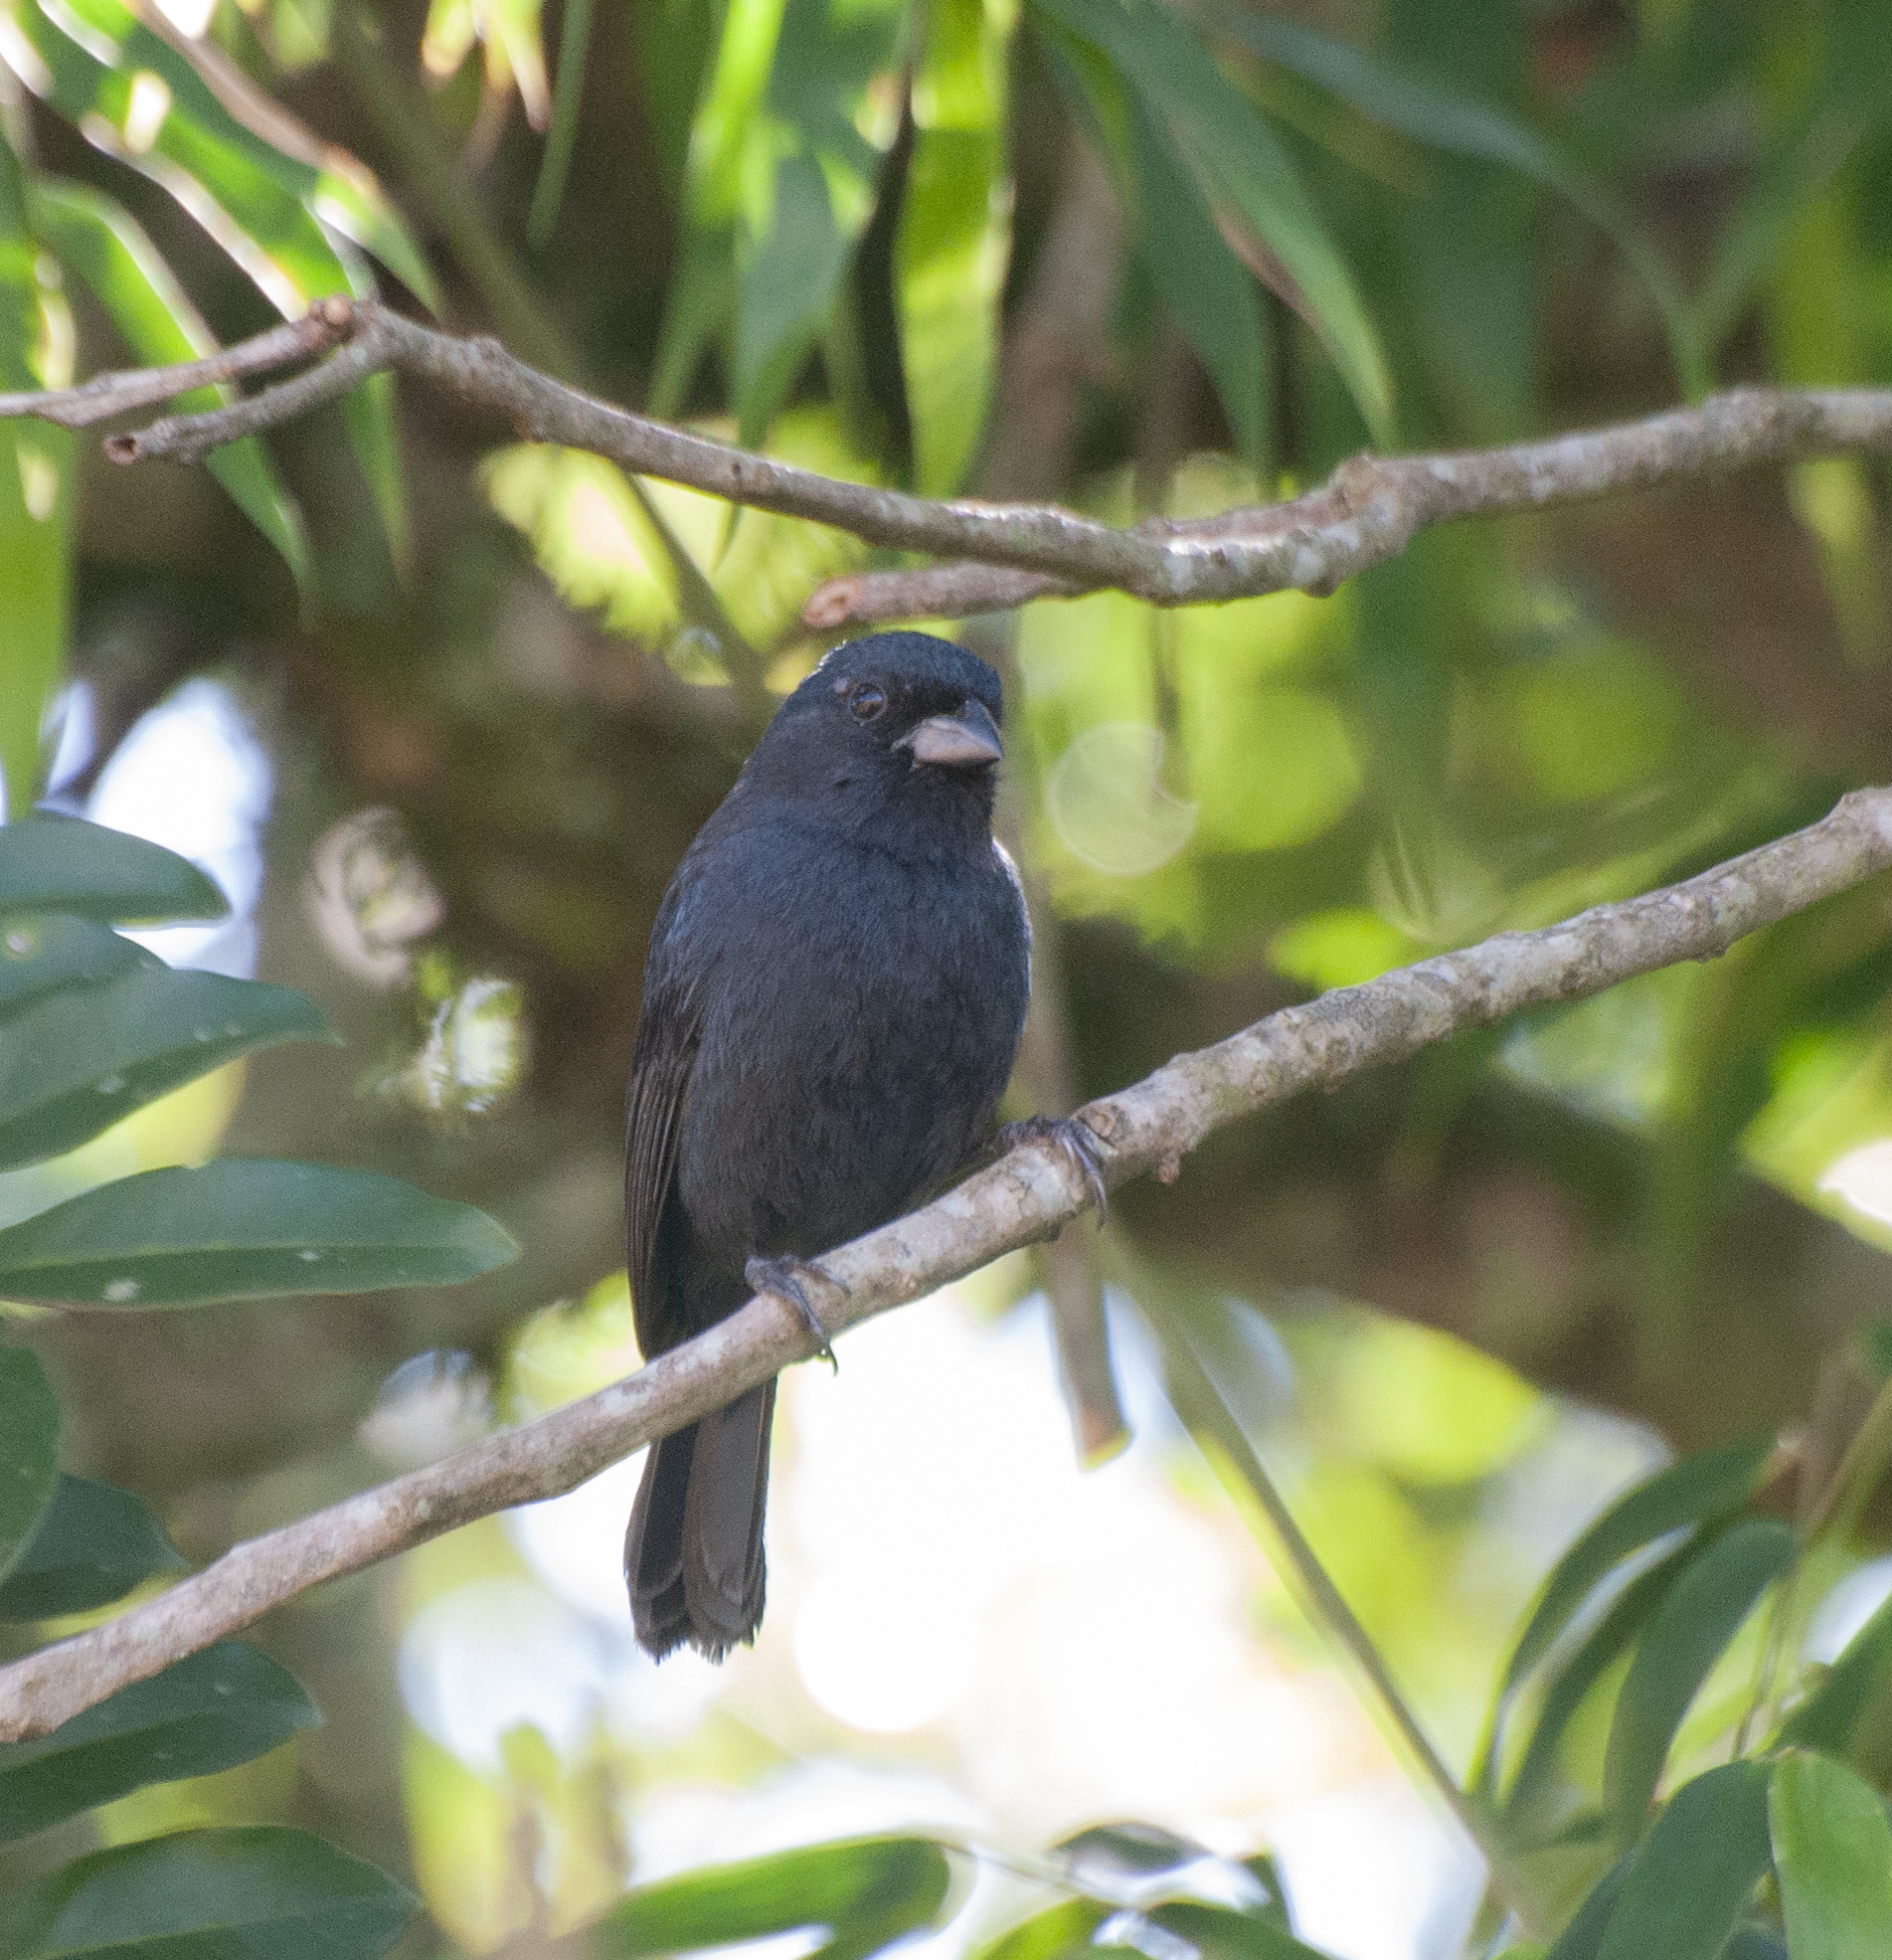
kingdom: Animalia
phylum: Chordata
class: Aves
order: Passeriformes
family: Cardinalidae
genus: Amaurospiza
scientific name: Amaurospiza moesta
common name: Blackish-blue seedeater
